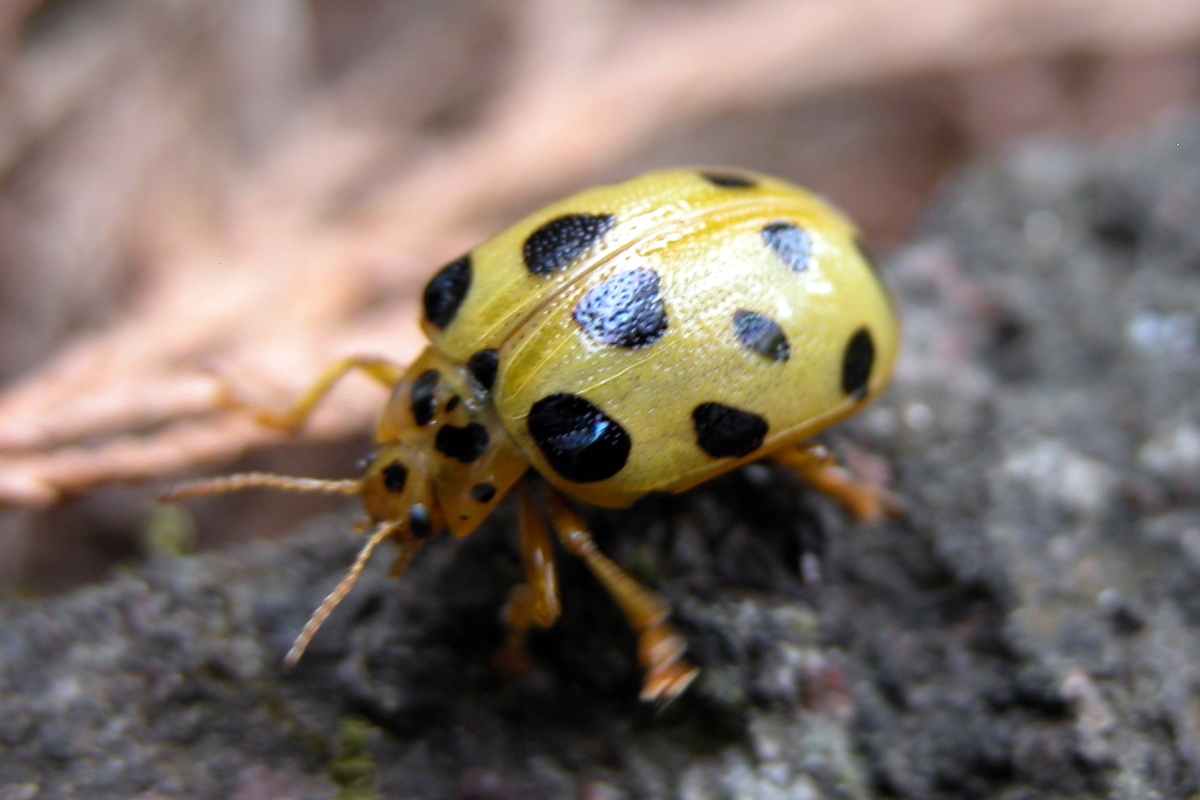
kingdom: Animalia
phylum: Arthropoda
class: Insecta
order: Coleoptera
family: Chrysomelidae
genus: Agasta
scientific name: Agasta formosa
